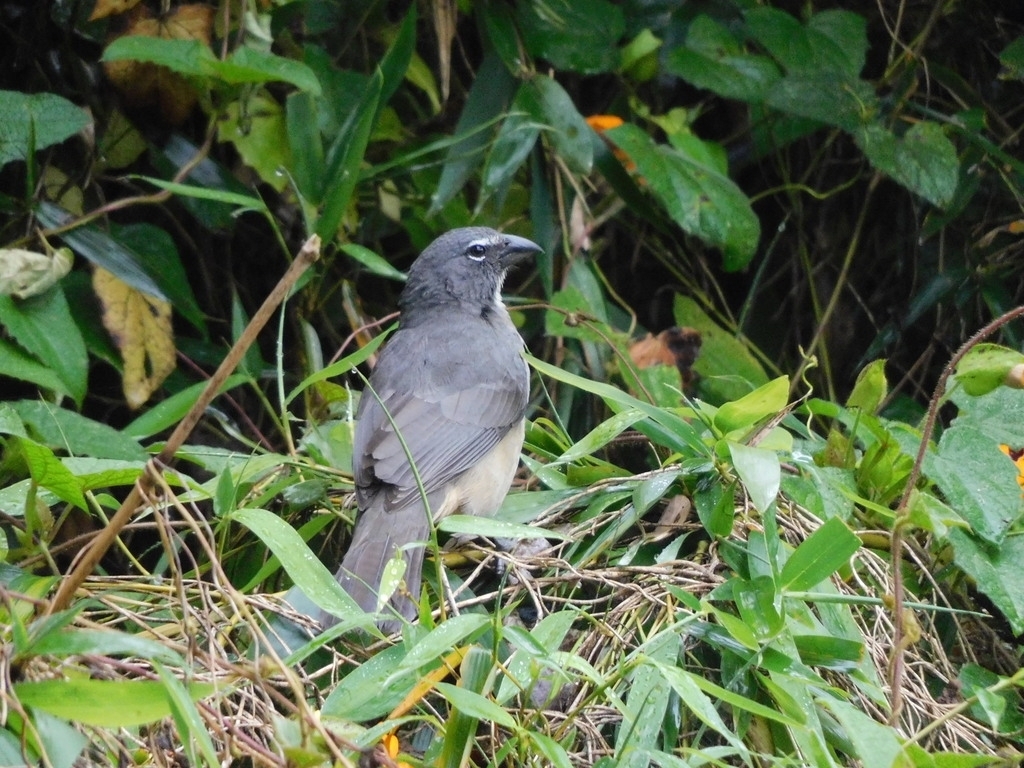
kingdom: Animalia
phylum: Chordata
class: Aves
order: Passeriformes
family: Thraupidae
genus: Saltator
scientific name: Saltator olivascens
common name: Caribbean grey saltator
